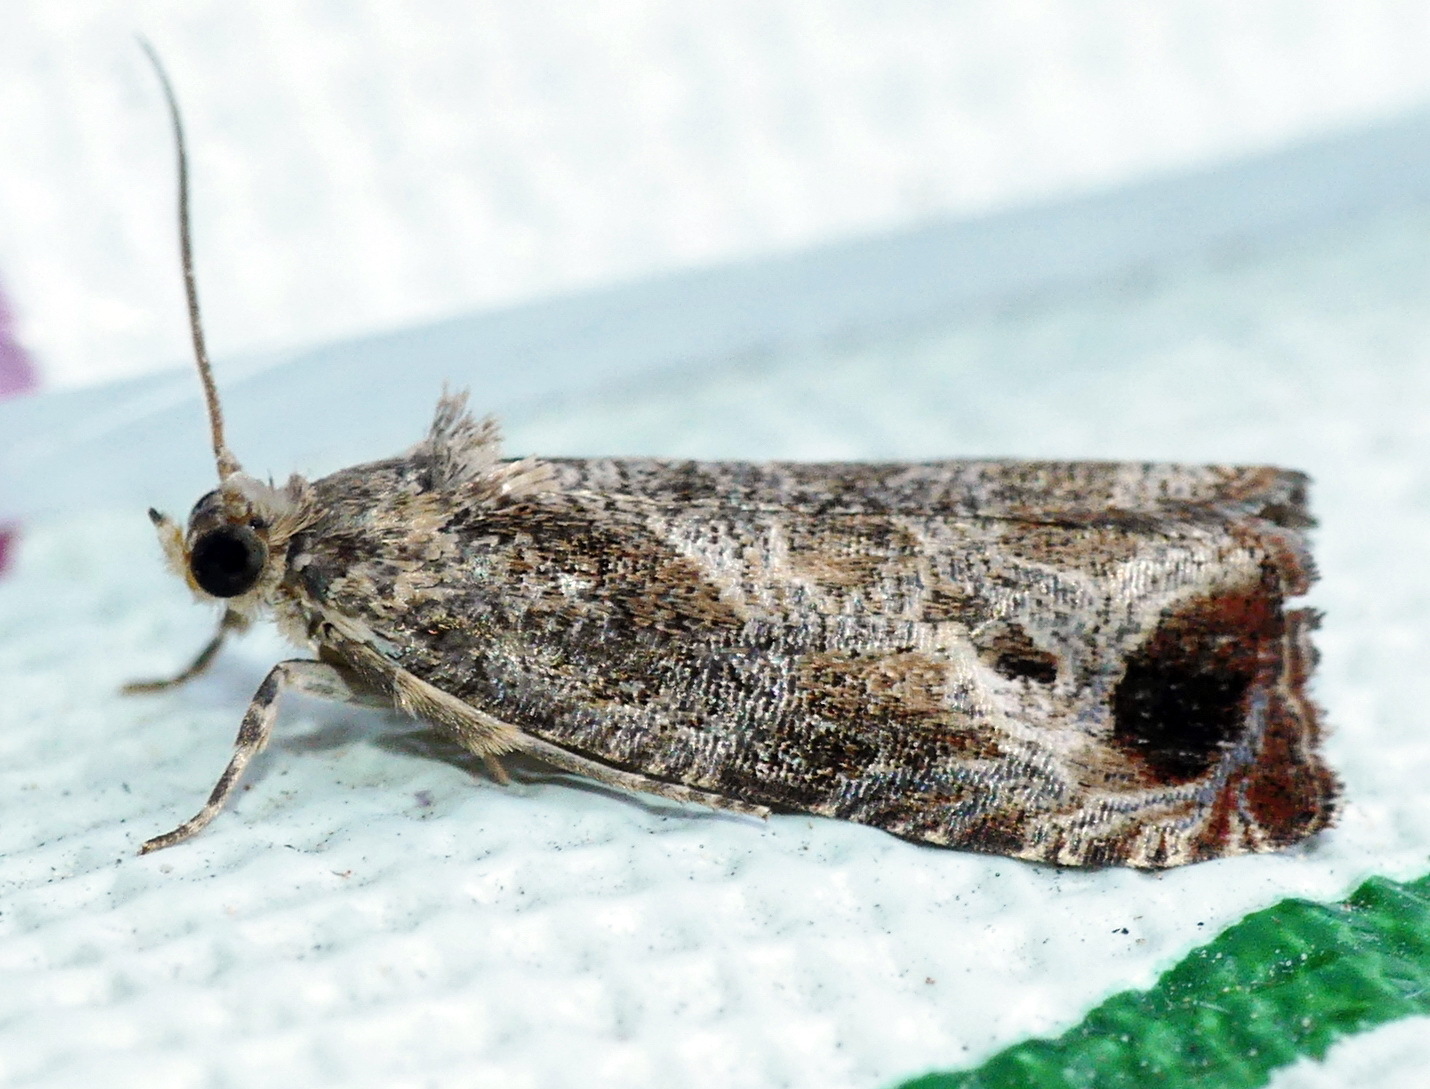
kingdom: Animalia
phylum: Arthropoda
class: Insecta
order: Lepidoptera
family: Tortricidae
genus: Olethreutes
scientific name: Olethreutes merrickanum
